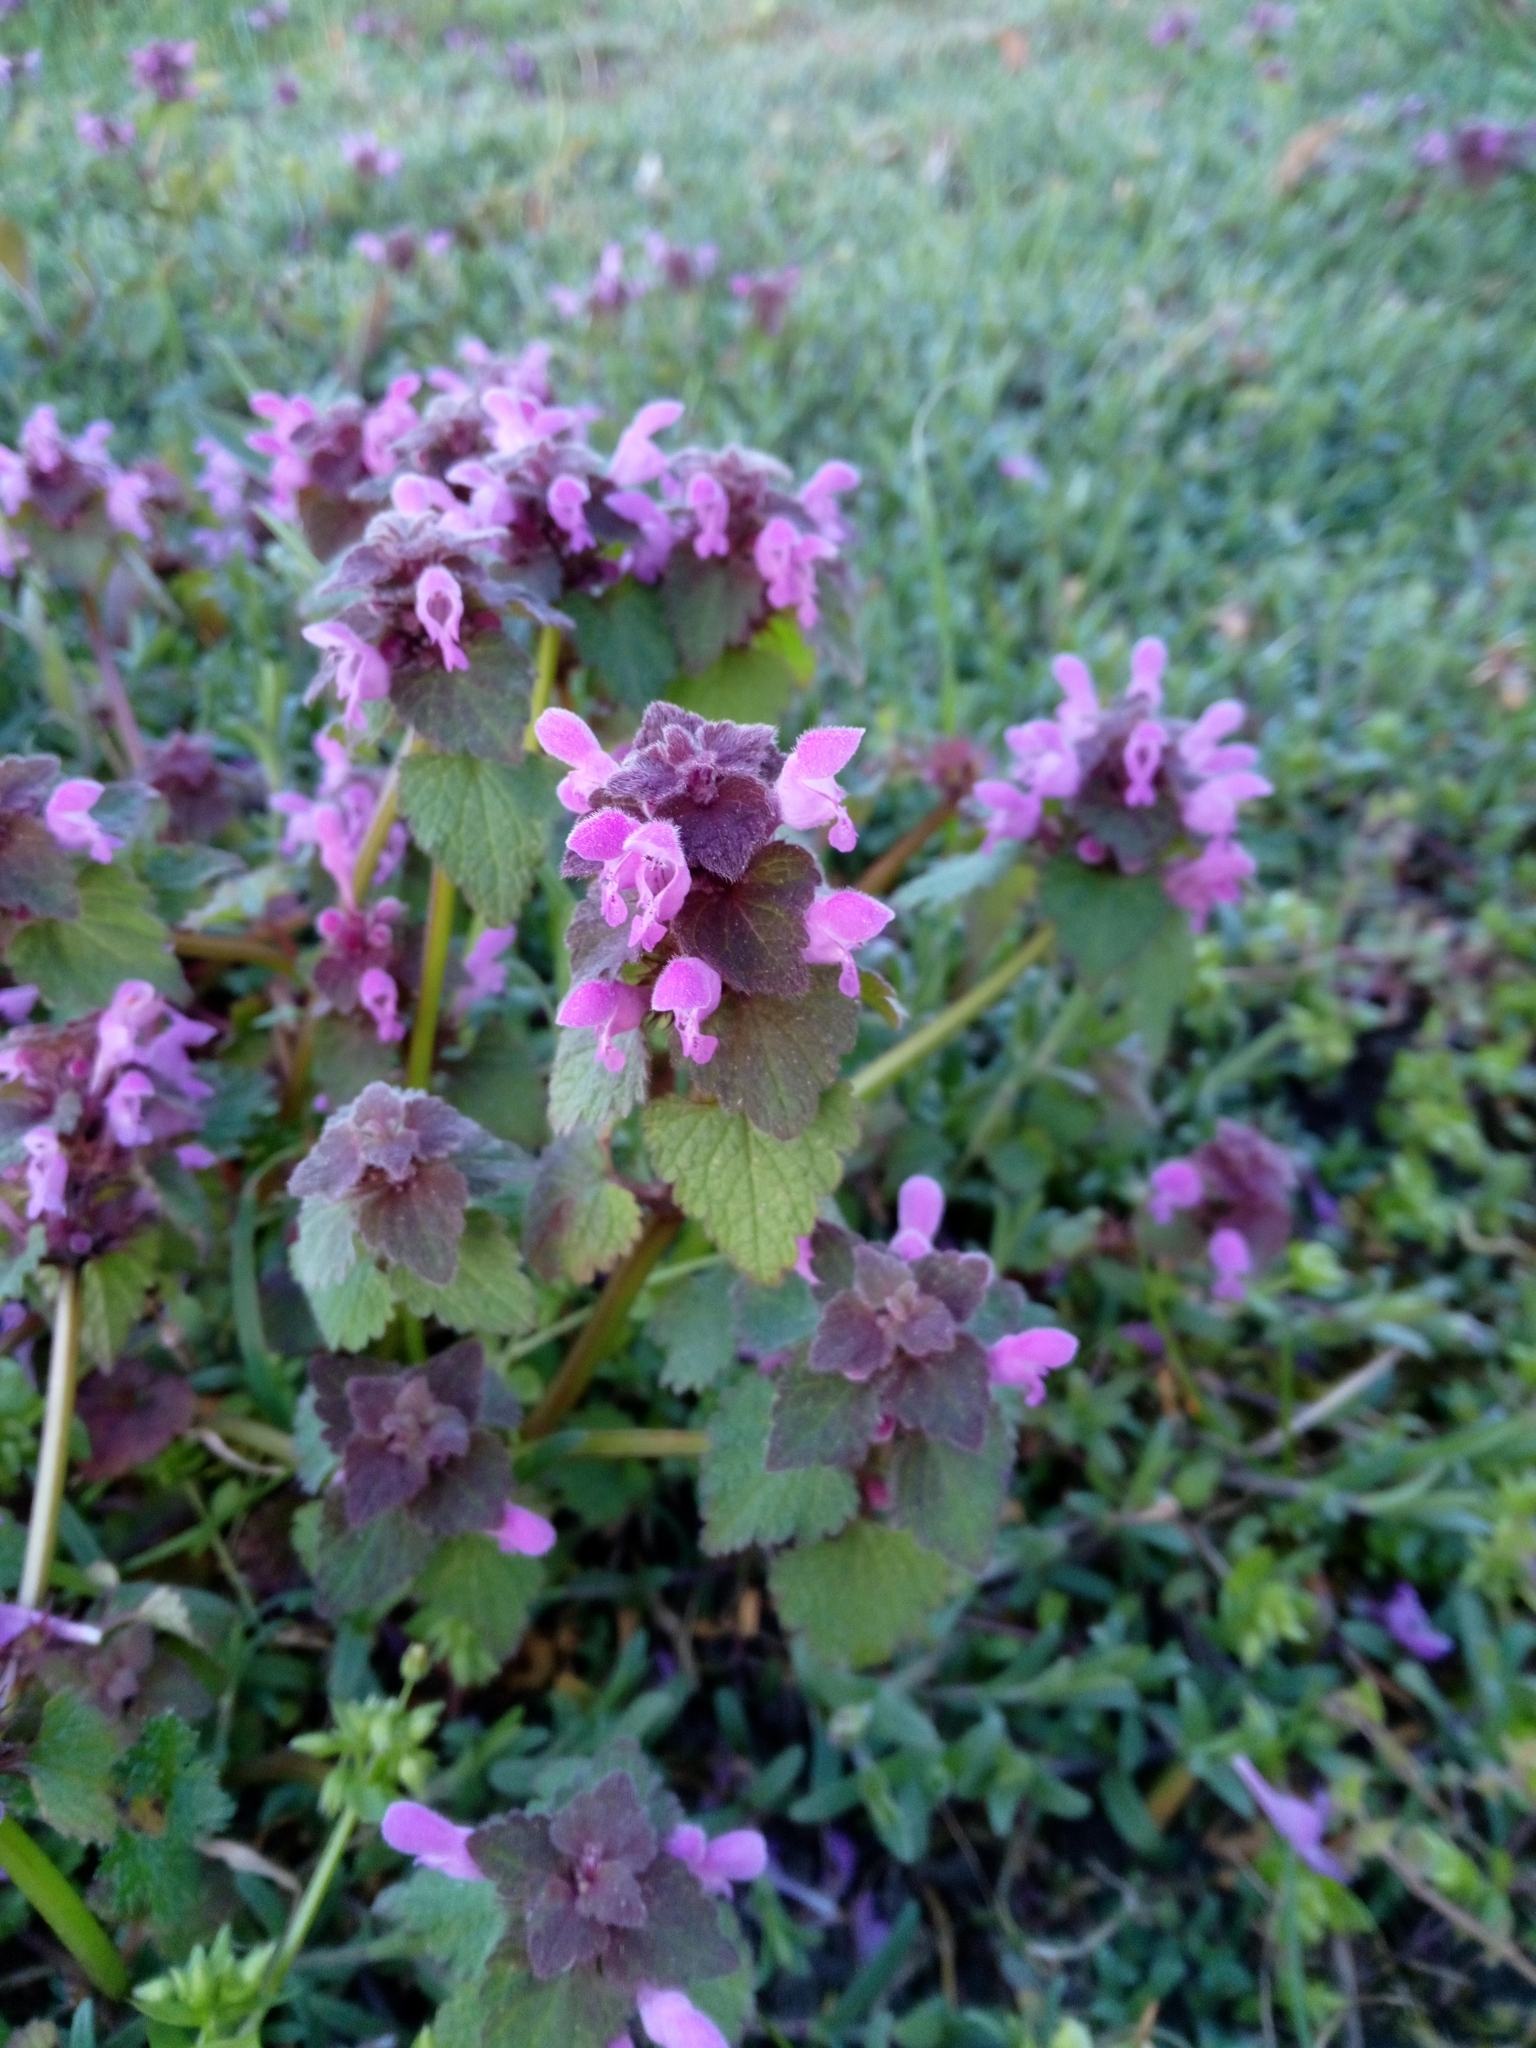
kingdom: Plantae
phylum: Tracheophyta
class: Magnoliopsida
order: Lamiales
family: Lamiaceae
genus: Lamium
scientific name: Lamium purpureum
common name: Red dead-nettle
